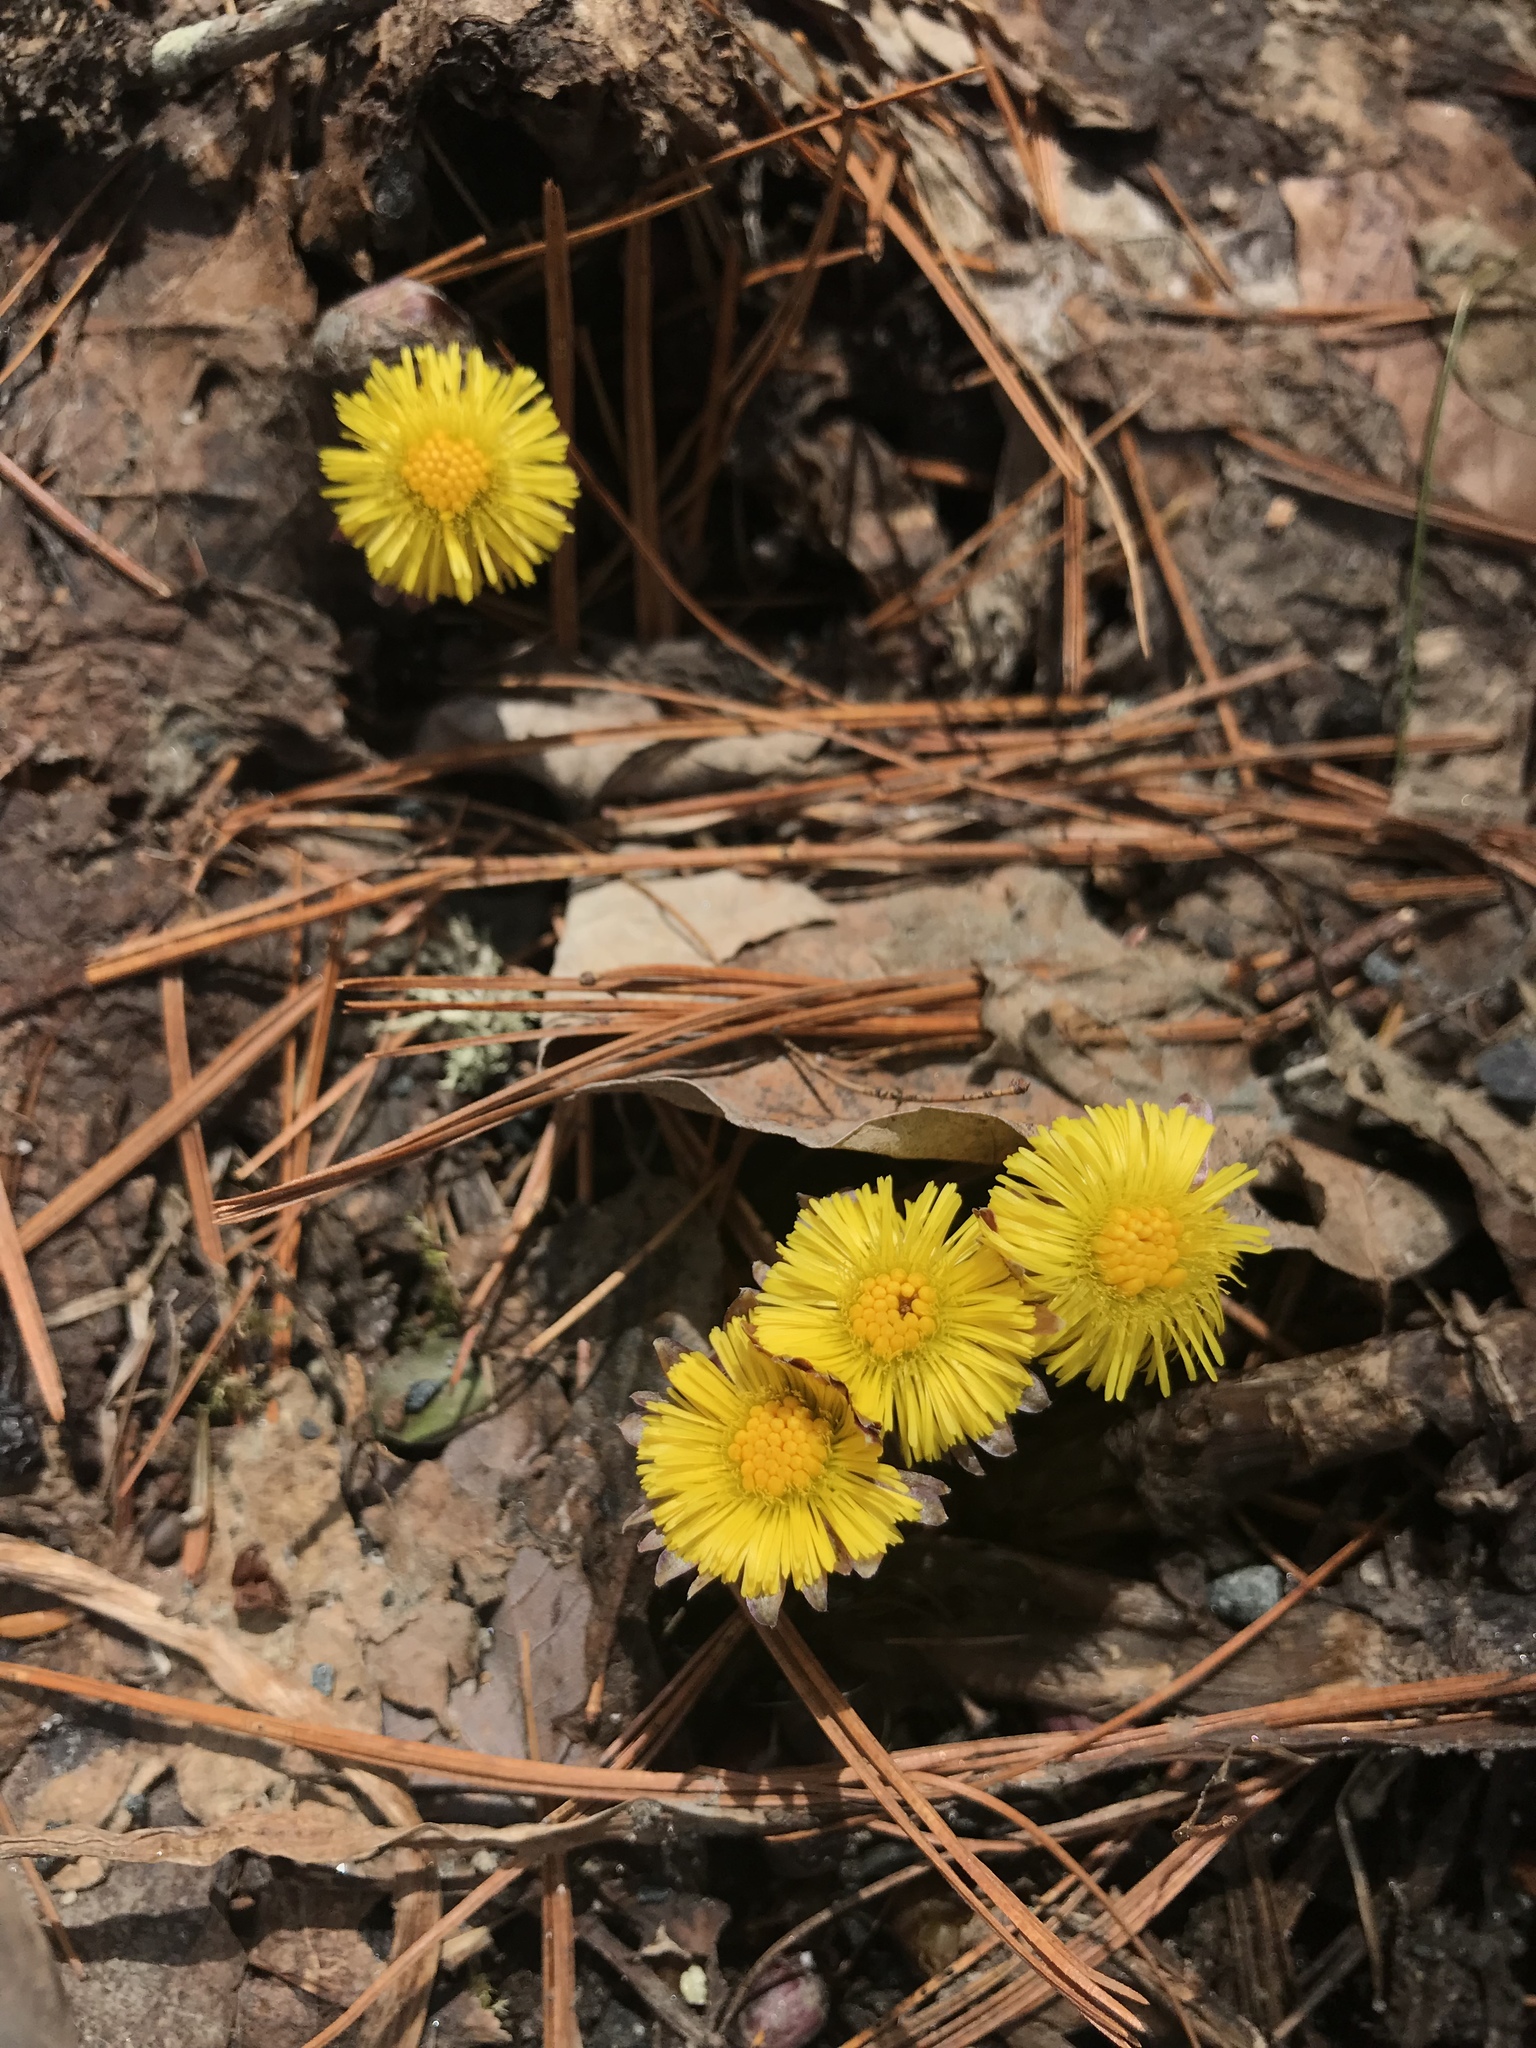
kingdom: Plantae
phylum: Tracheophyta
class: Magnoliopsida
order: Asterales
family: Asteraceae
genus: Tussilago
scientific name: Tussilago farfara
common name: Coltsfoot
